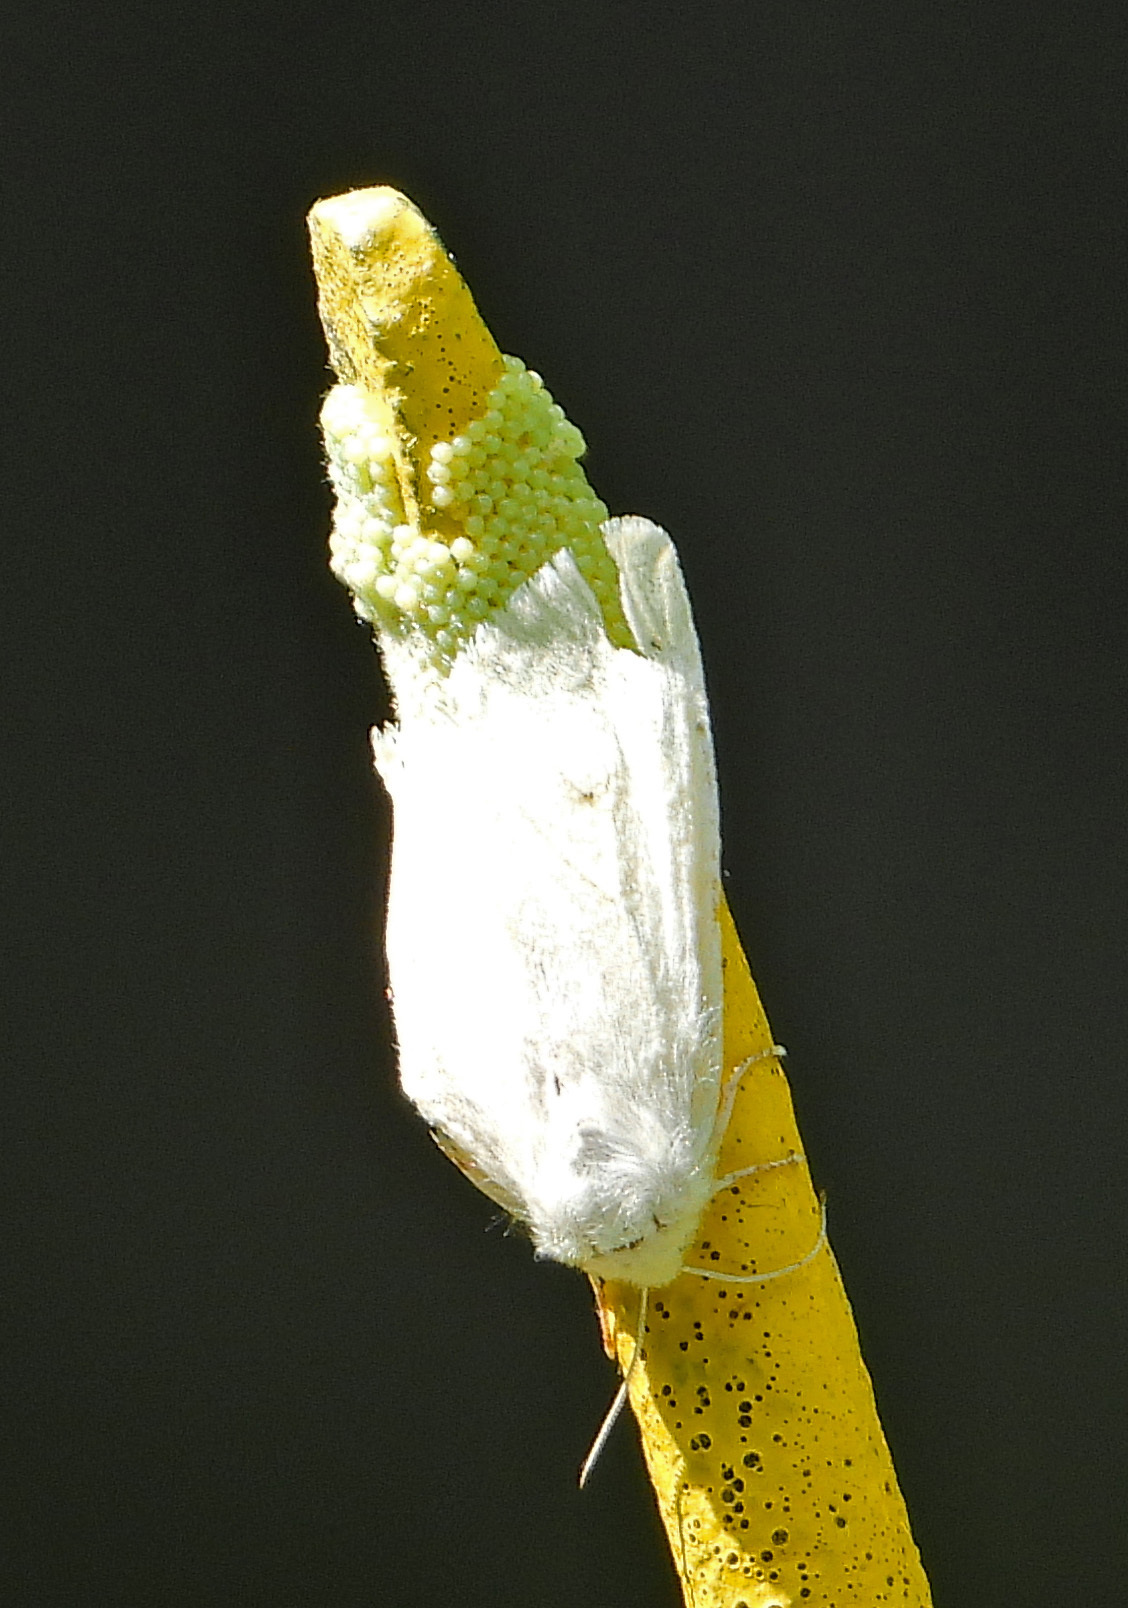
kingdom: Animalia
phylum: Arthropoda
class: Insecta
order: Lepidoptera
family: Erebidae
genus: Hyphantria
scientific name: Hyphantria cunea
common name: American white moth
